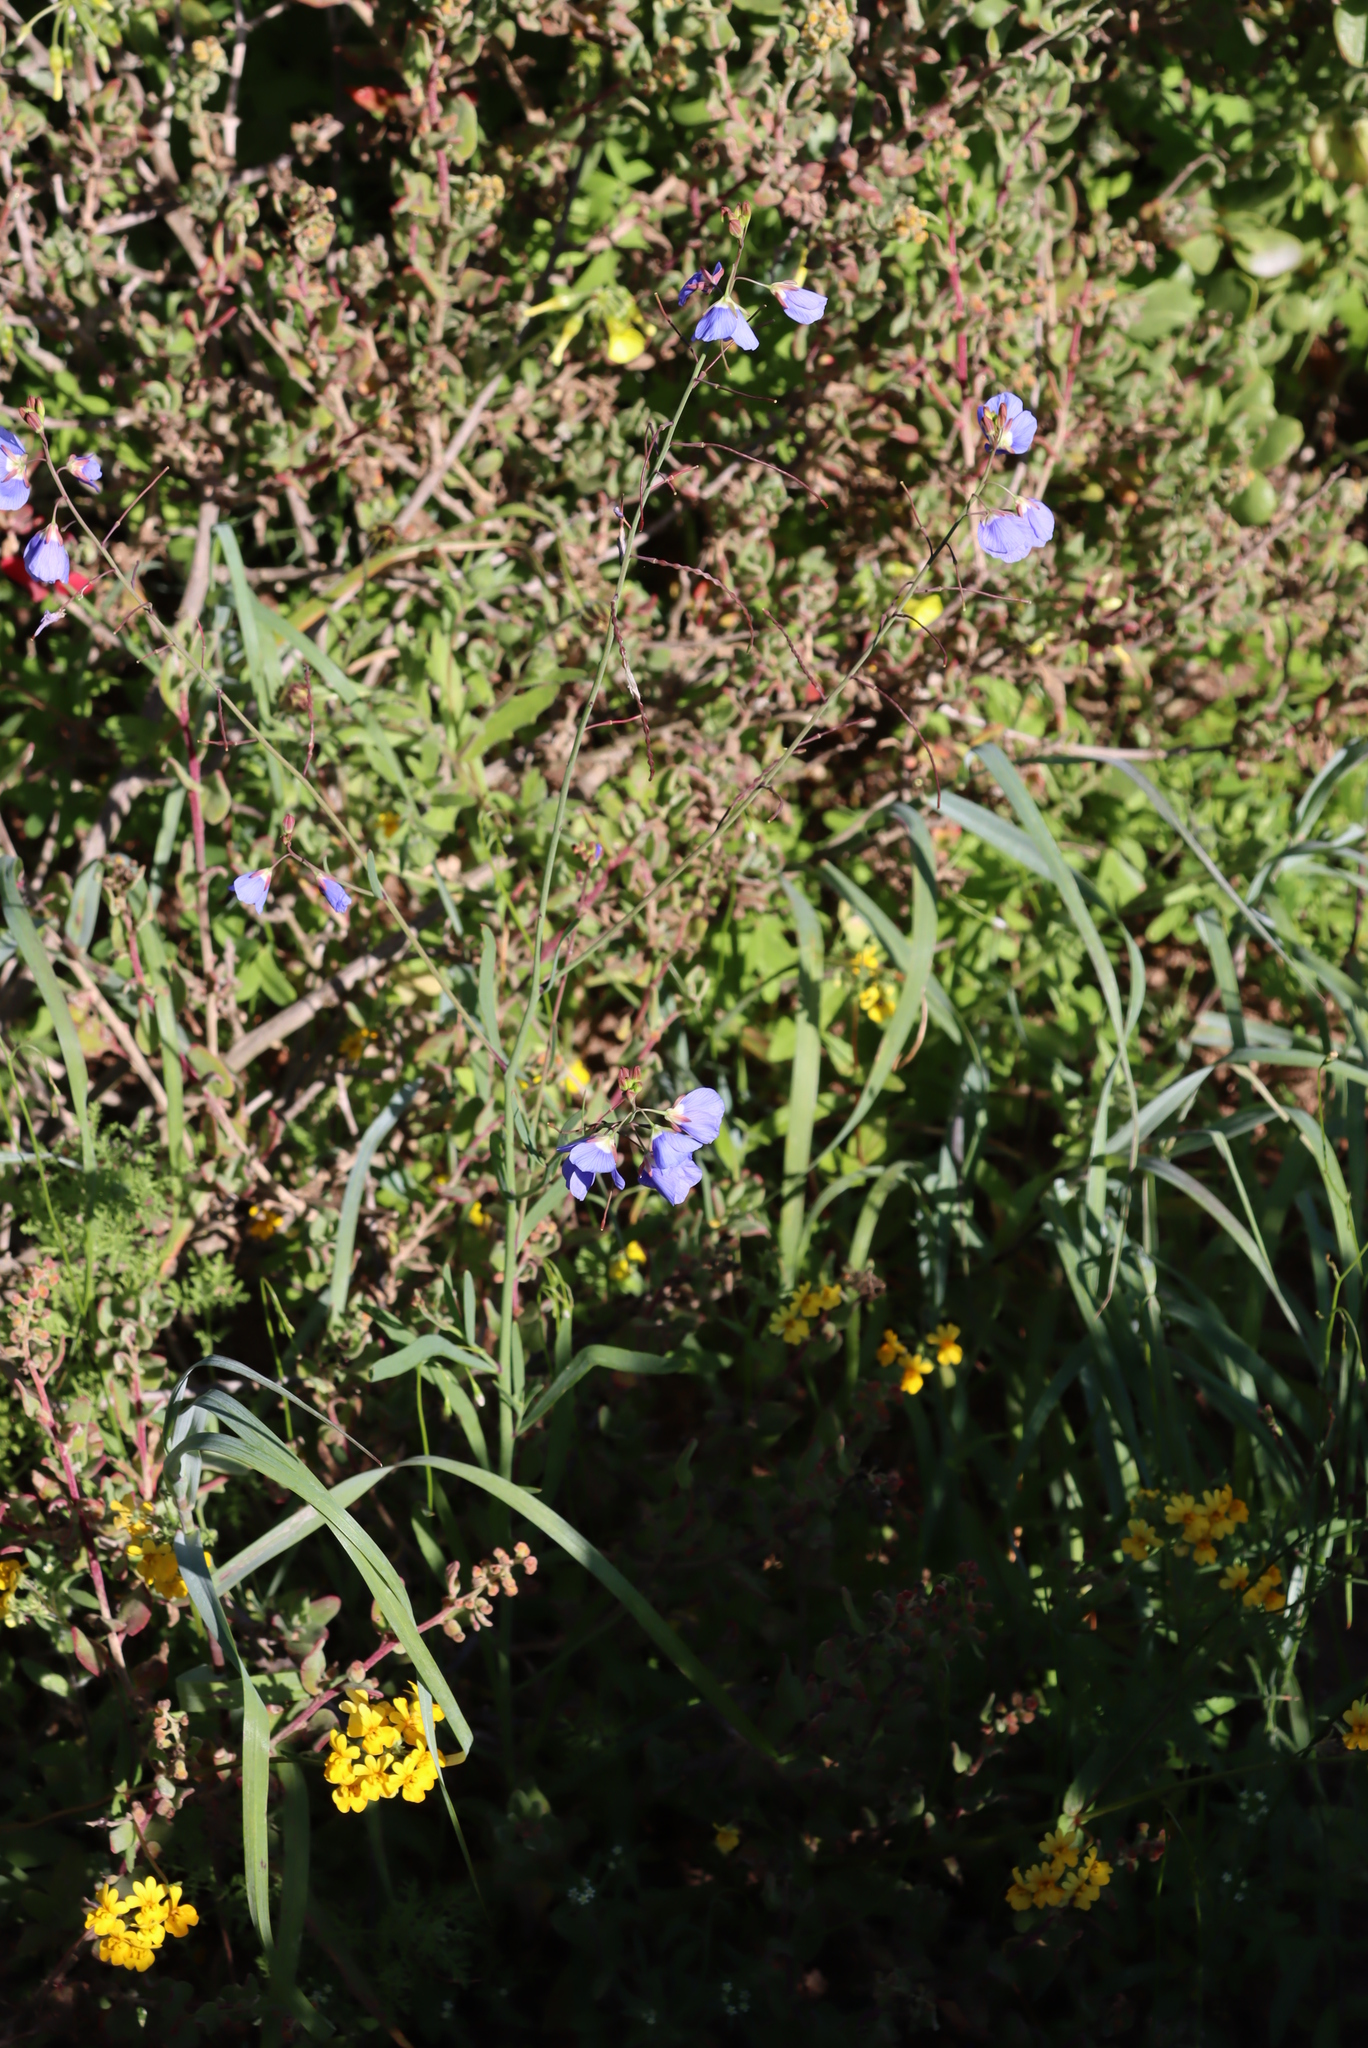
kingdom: Plantae
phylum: Tracheophyta
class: Magnoliopsida
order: Brassicales
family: Brassicaceae
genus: Heliophila
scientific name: Heliophila coronopifolia
